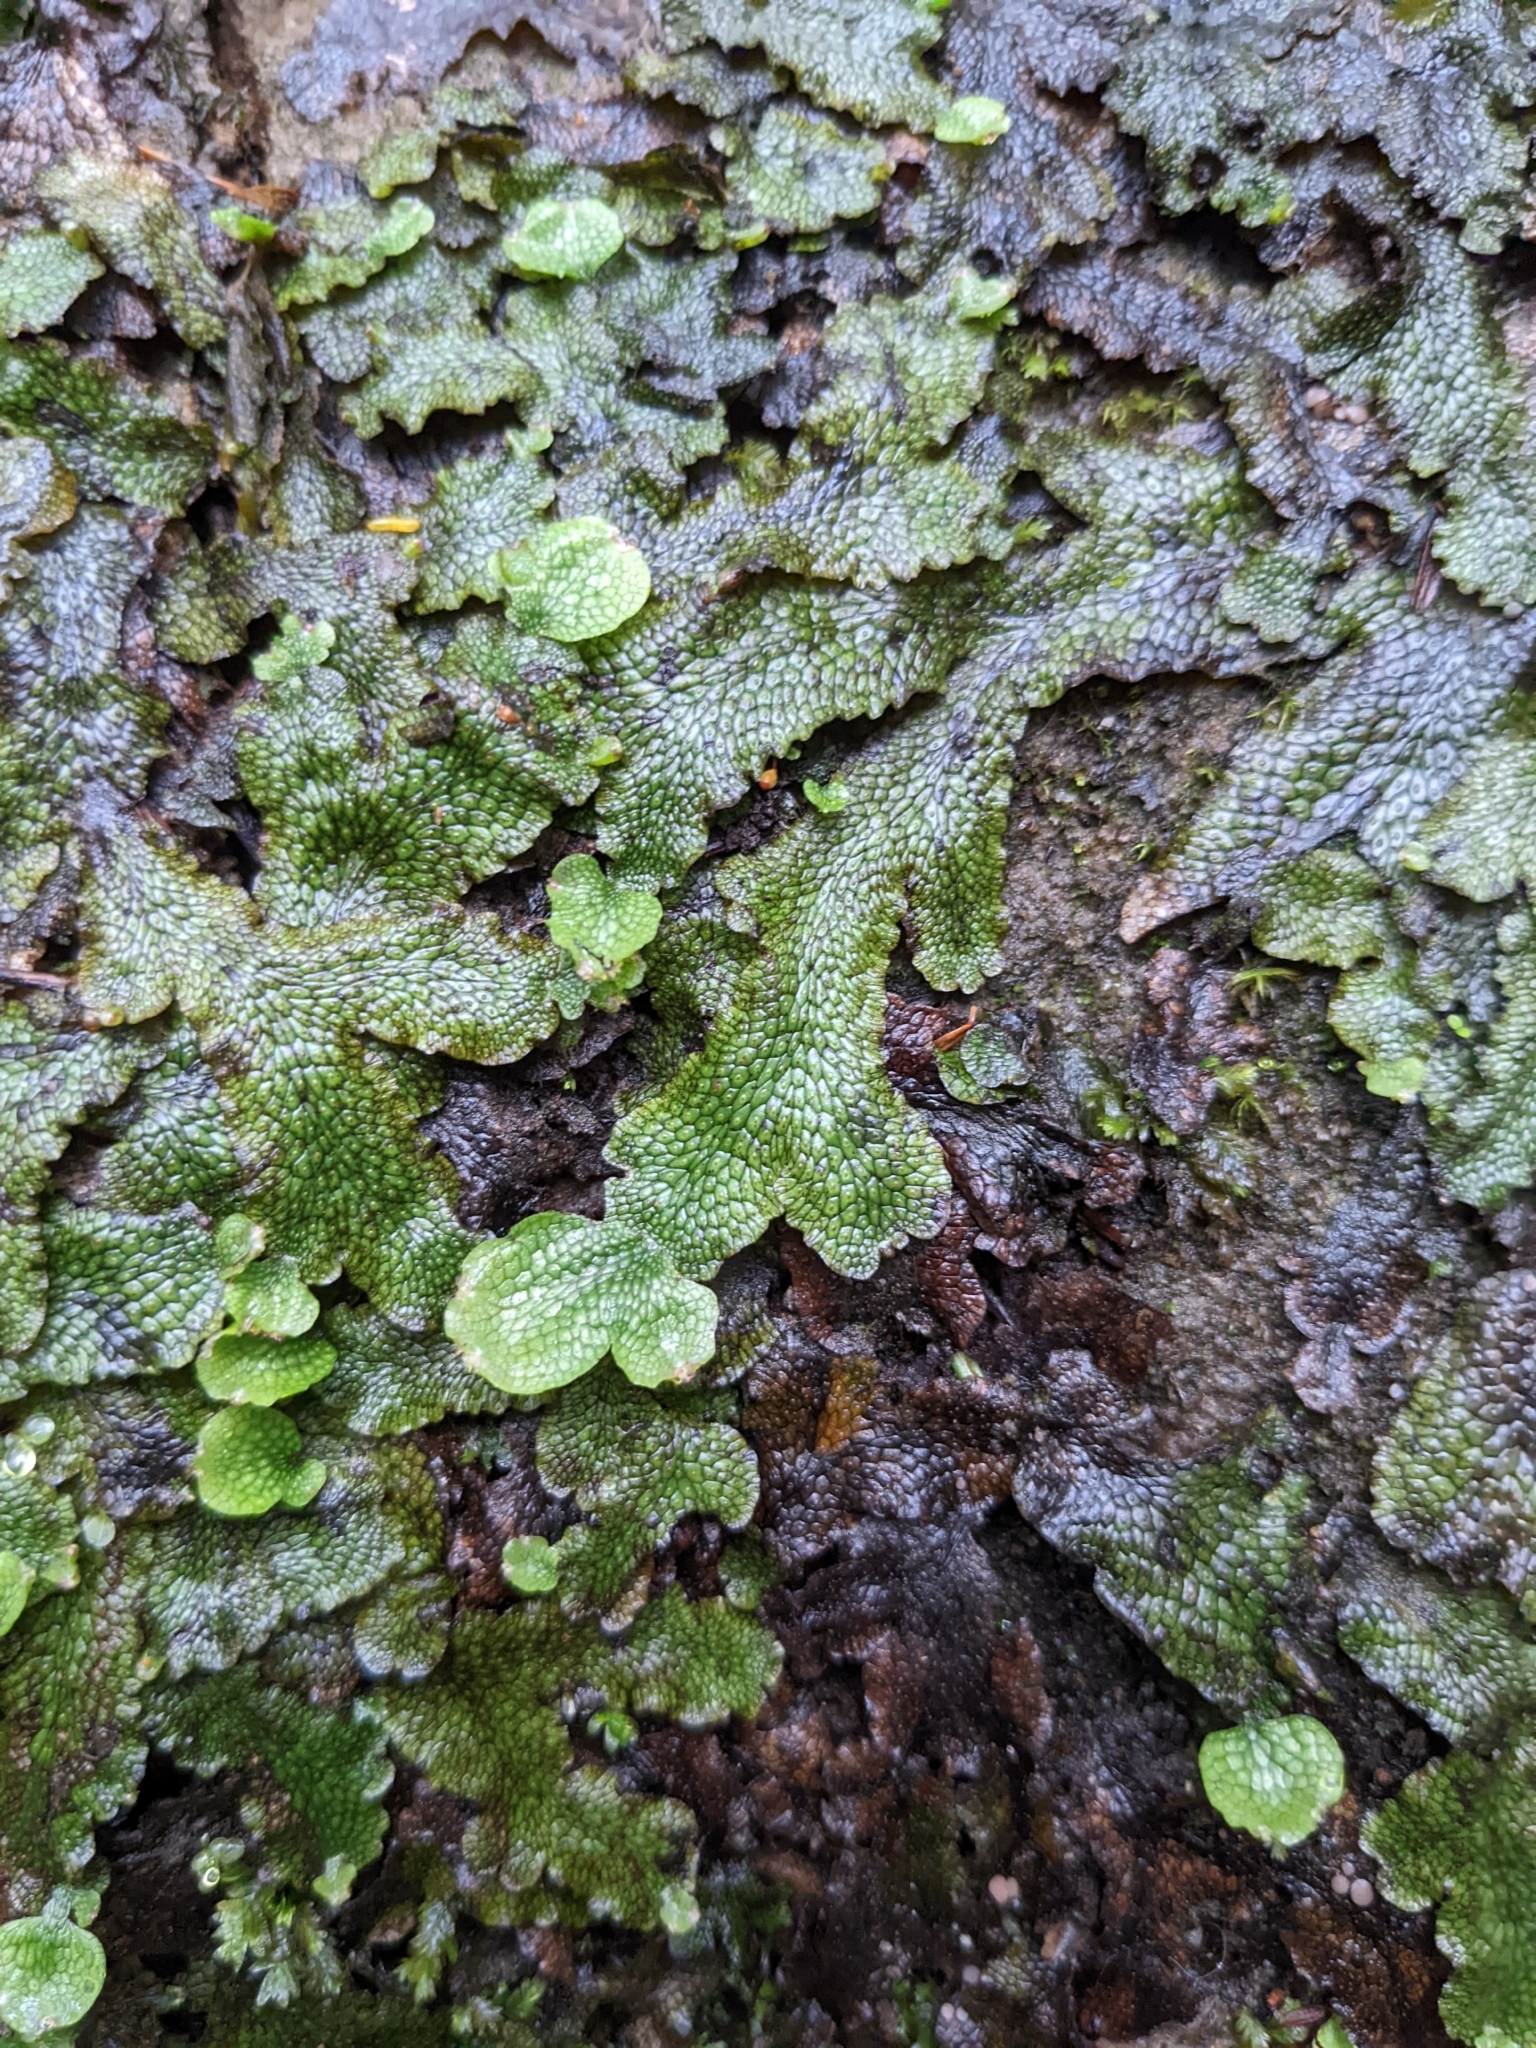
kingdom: Plantae
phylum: Marchantiophyta
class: Marchantiopsida
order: Marchantiales
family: Conocephalaceae
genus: Conocephalum
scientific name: Conocephalum salebrosum
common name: Cat-tongue liverwort
